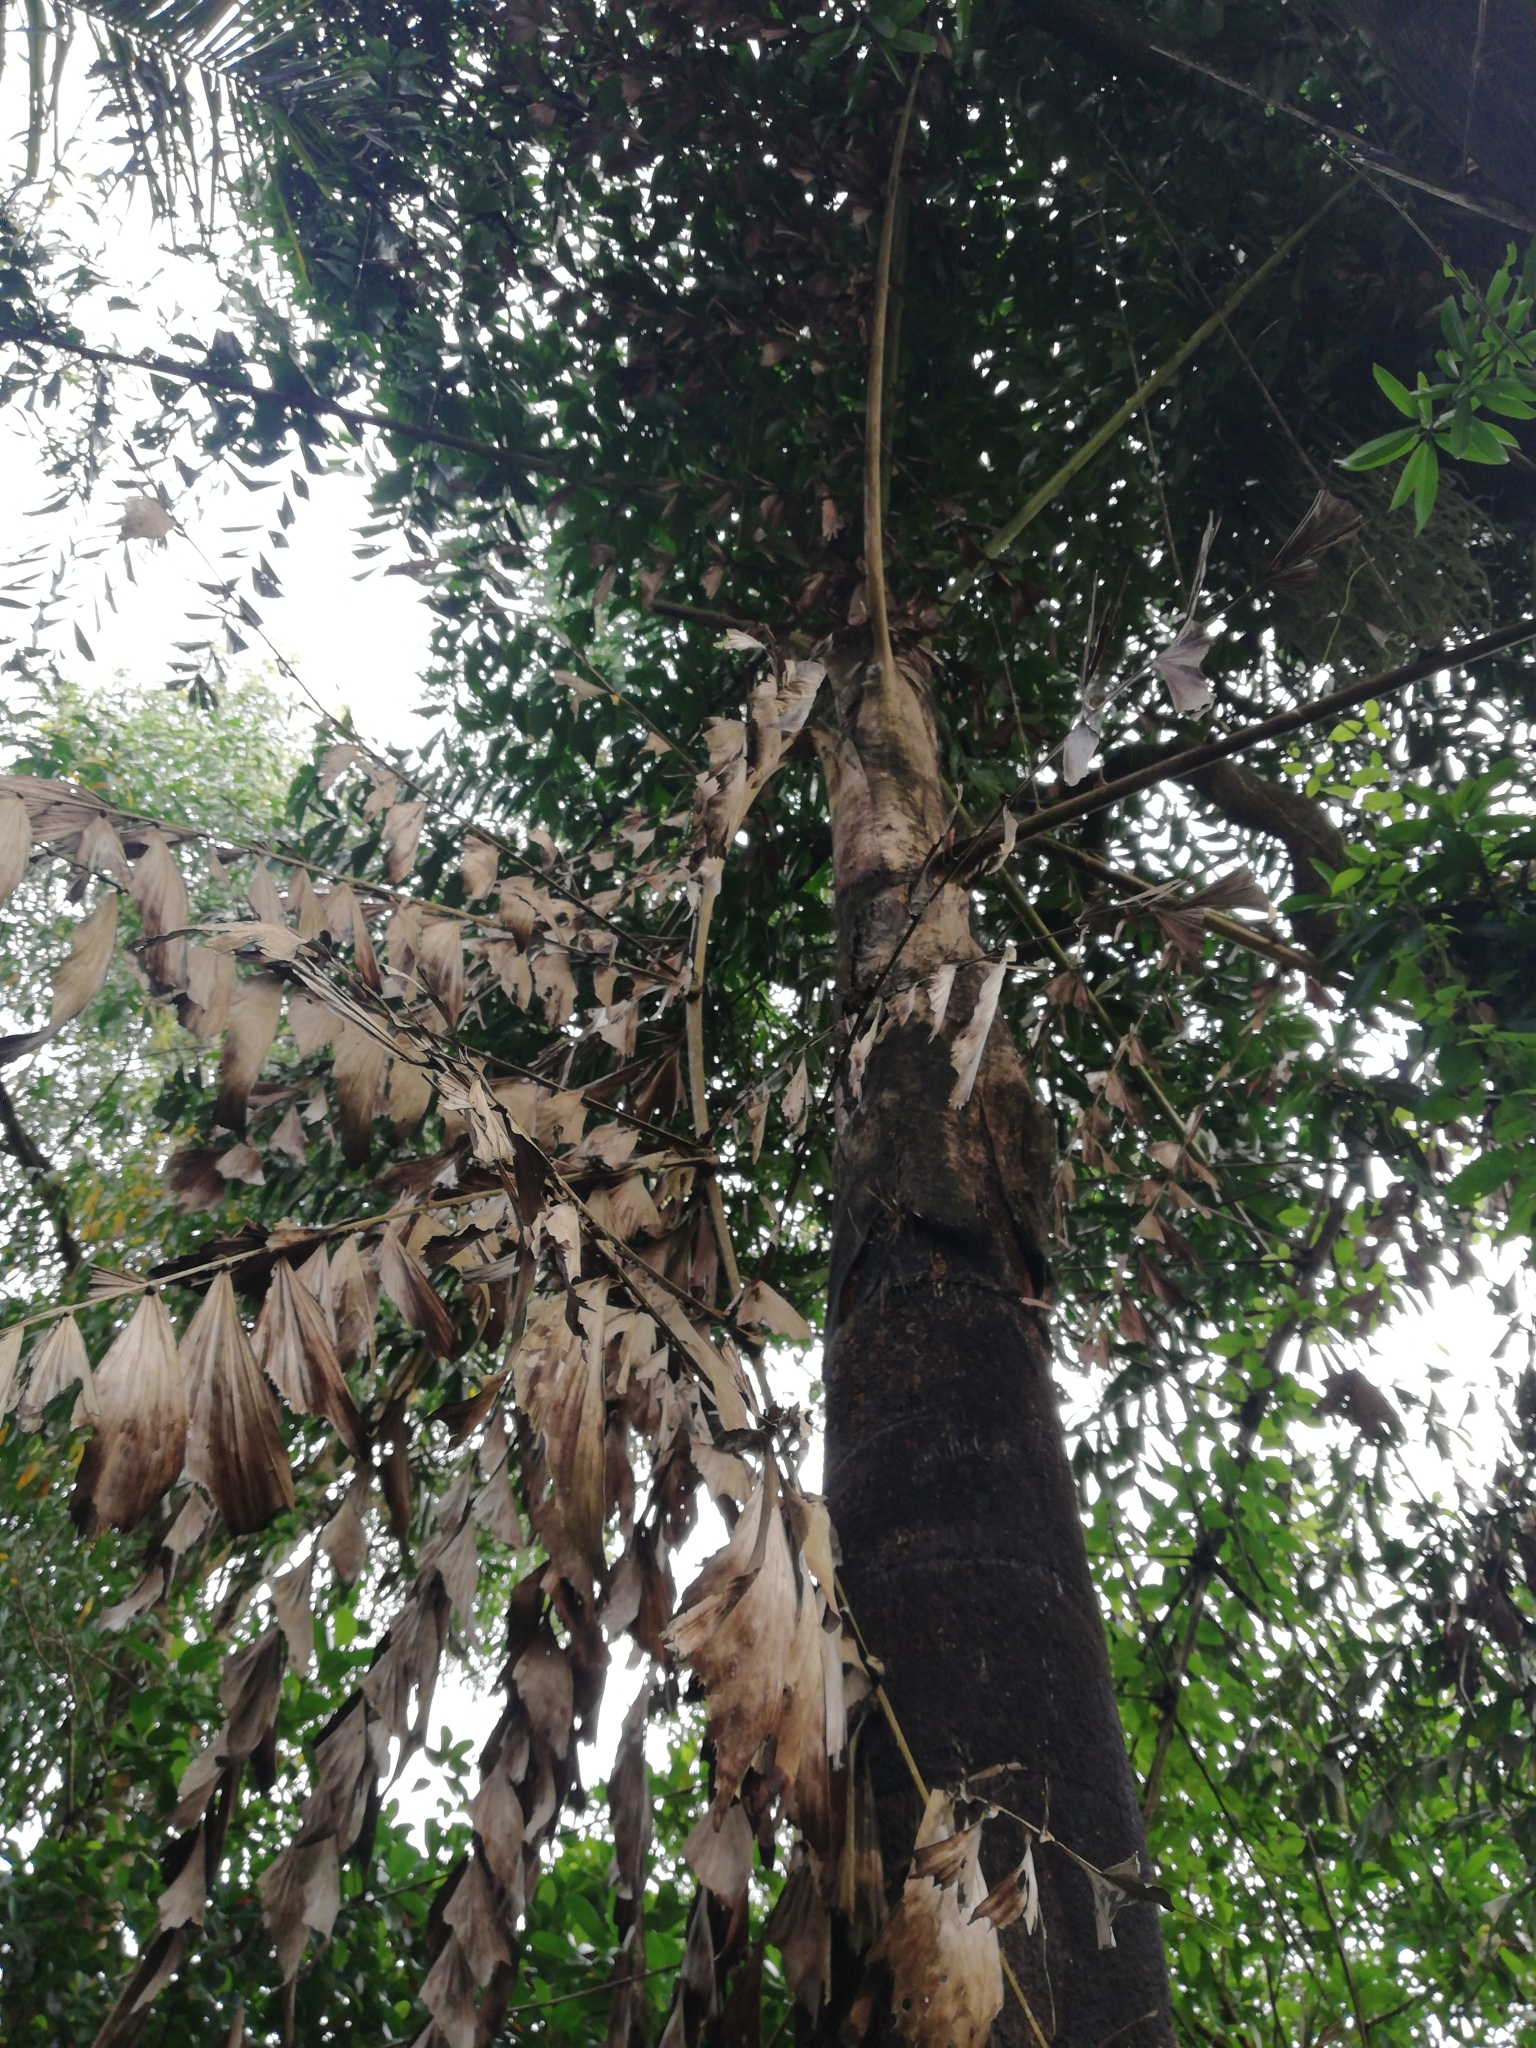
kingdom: Plantae
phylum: Tracheophyta
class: Liliopsida
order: Arecales
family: Arecaceae
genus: Caryota
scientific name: Caryota urens
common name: Jaggery palm
